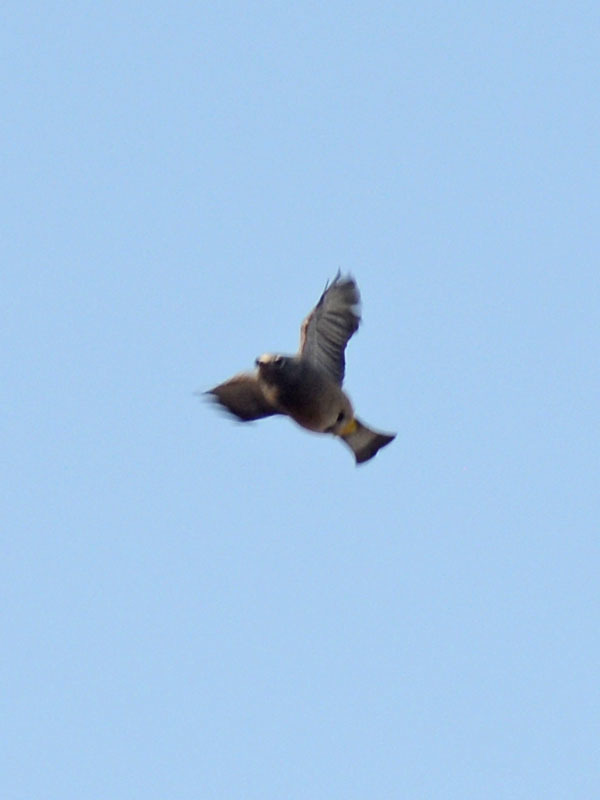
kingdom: Animalia
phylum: Chordata
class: Aves
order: Passeriformes
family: Ptilogonatidae
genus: Ptilogonys
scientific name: Ptilogonys cinereus
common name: Gray silky-flycatcher
